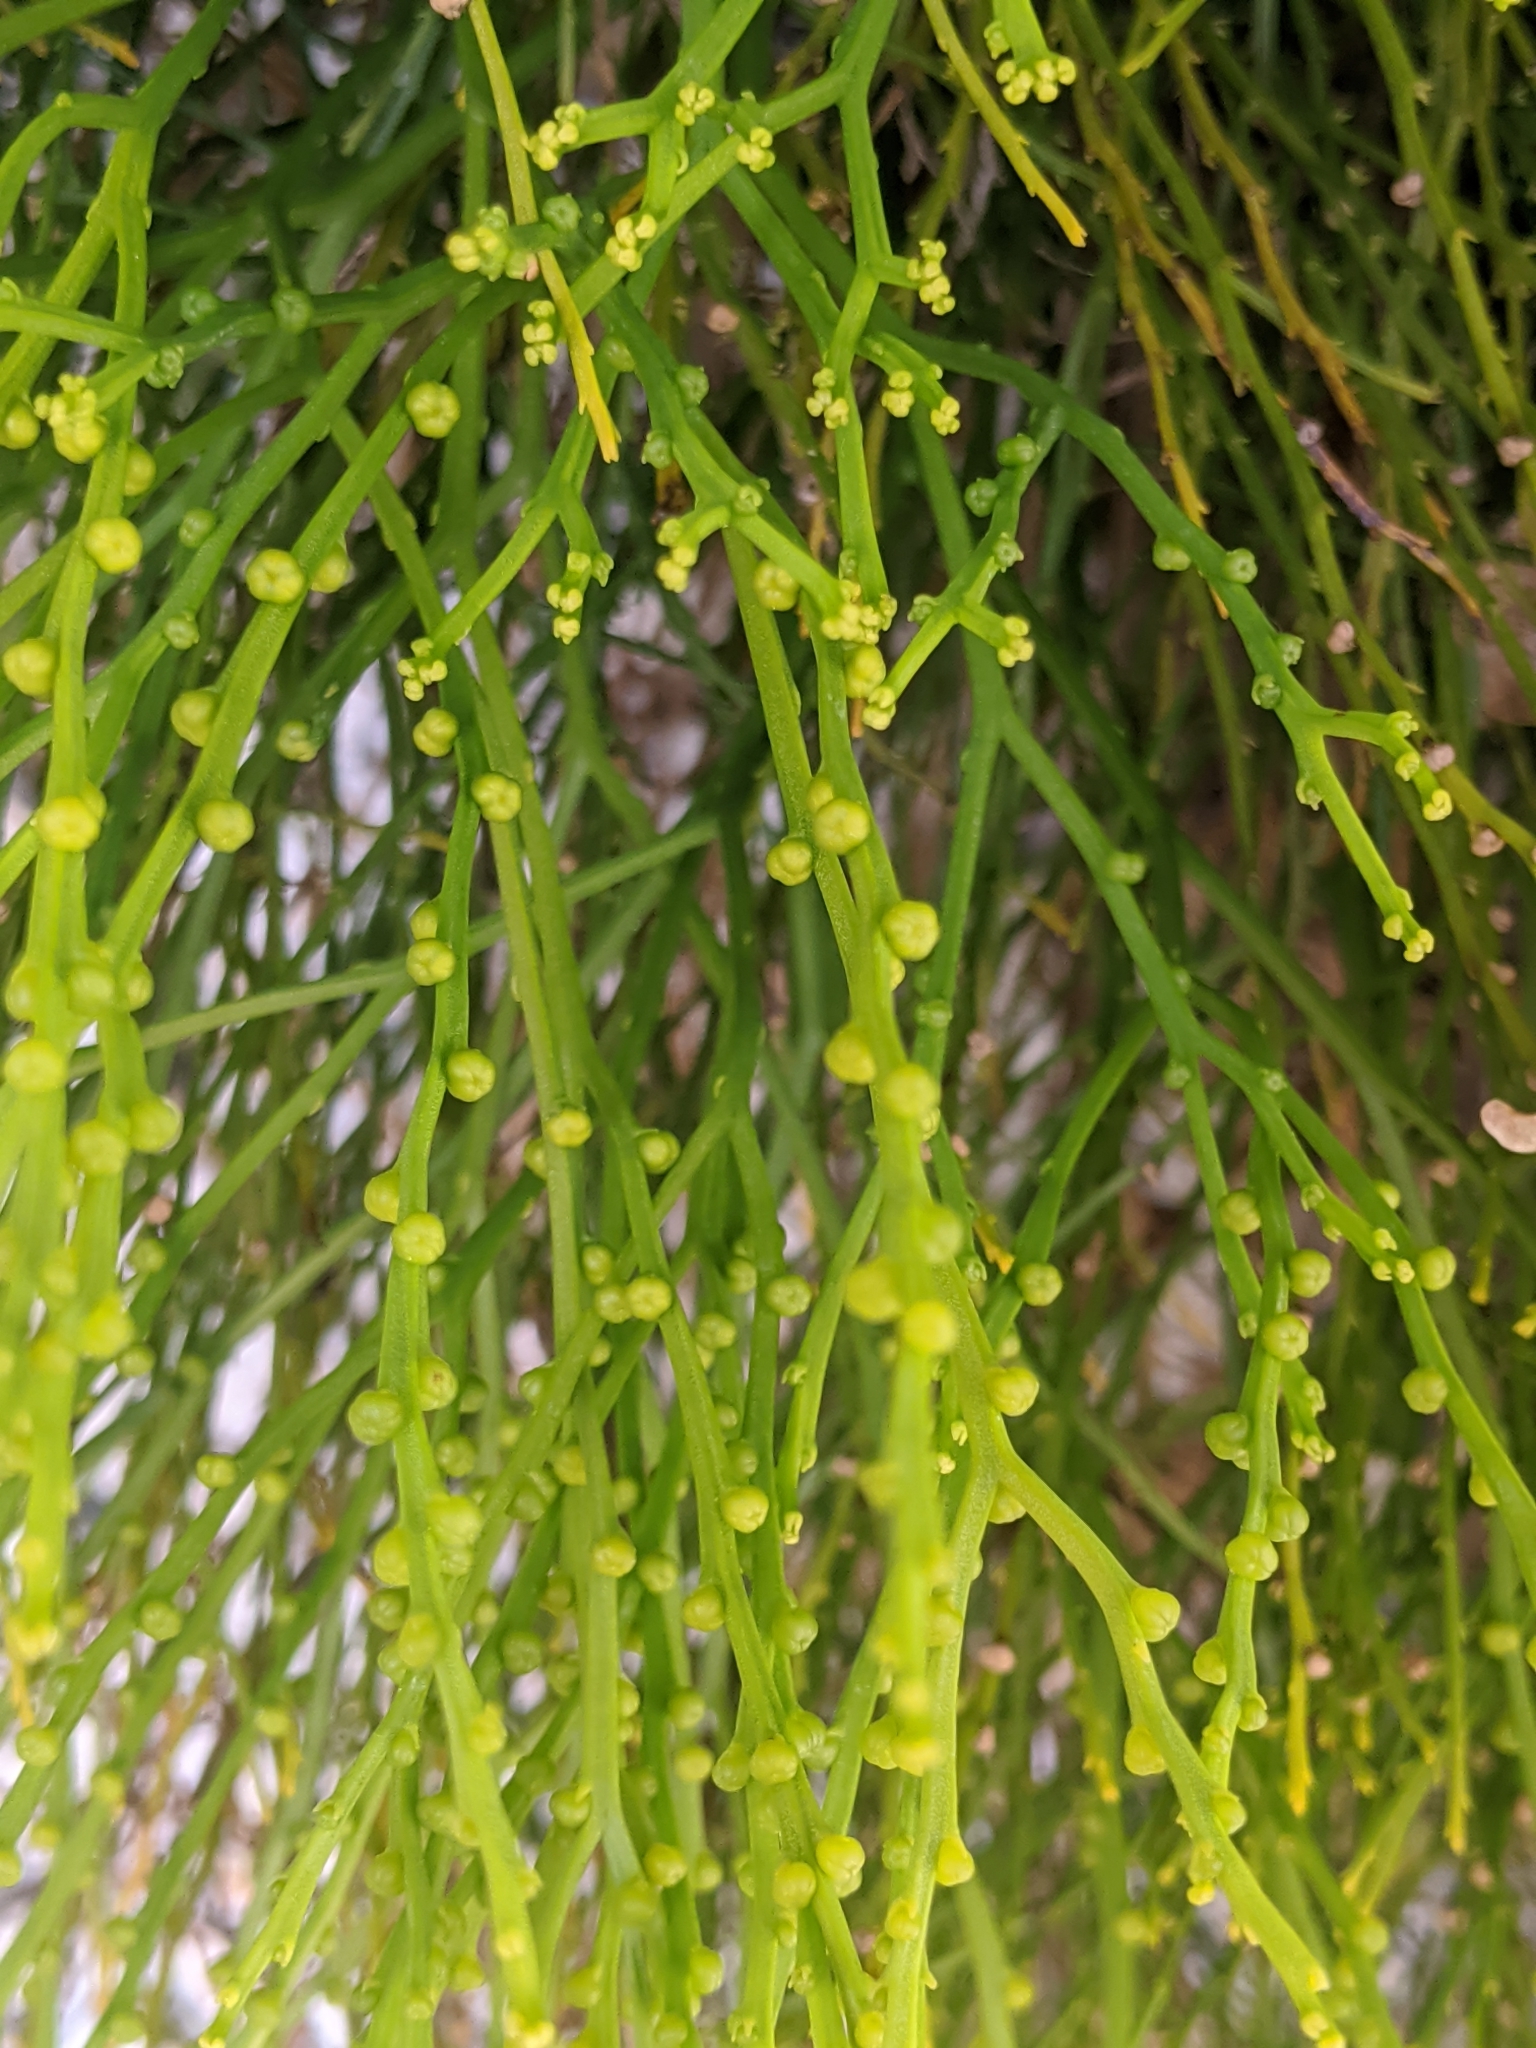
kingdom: Plantae
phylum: Tracheophyta
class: Polypodiopsida
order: Psilotales
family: Psilotaceae
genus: Psilotum
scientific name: Psilotum nudum
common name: Skeleton fork fern
